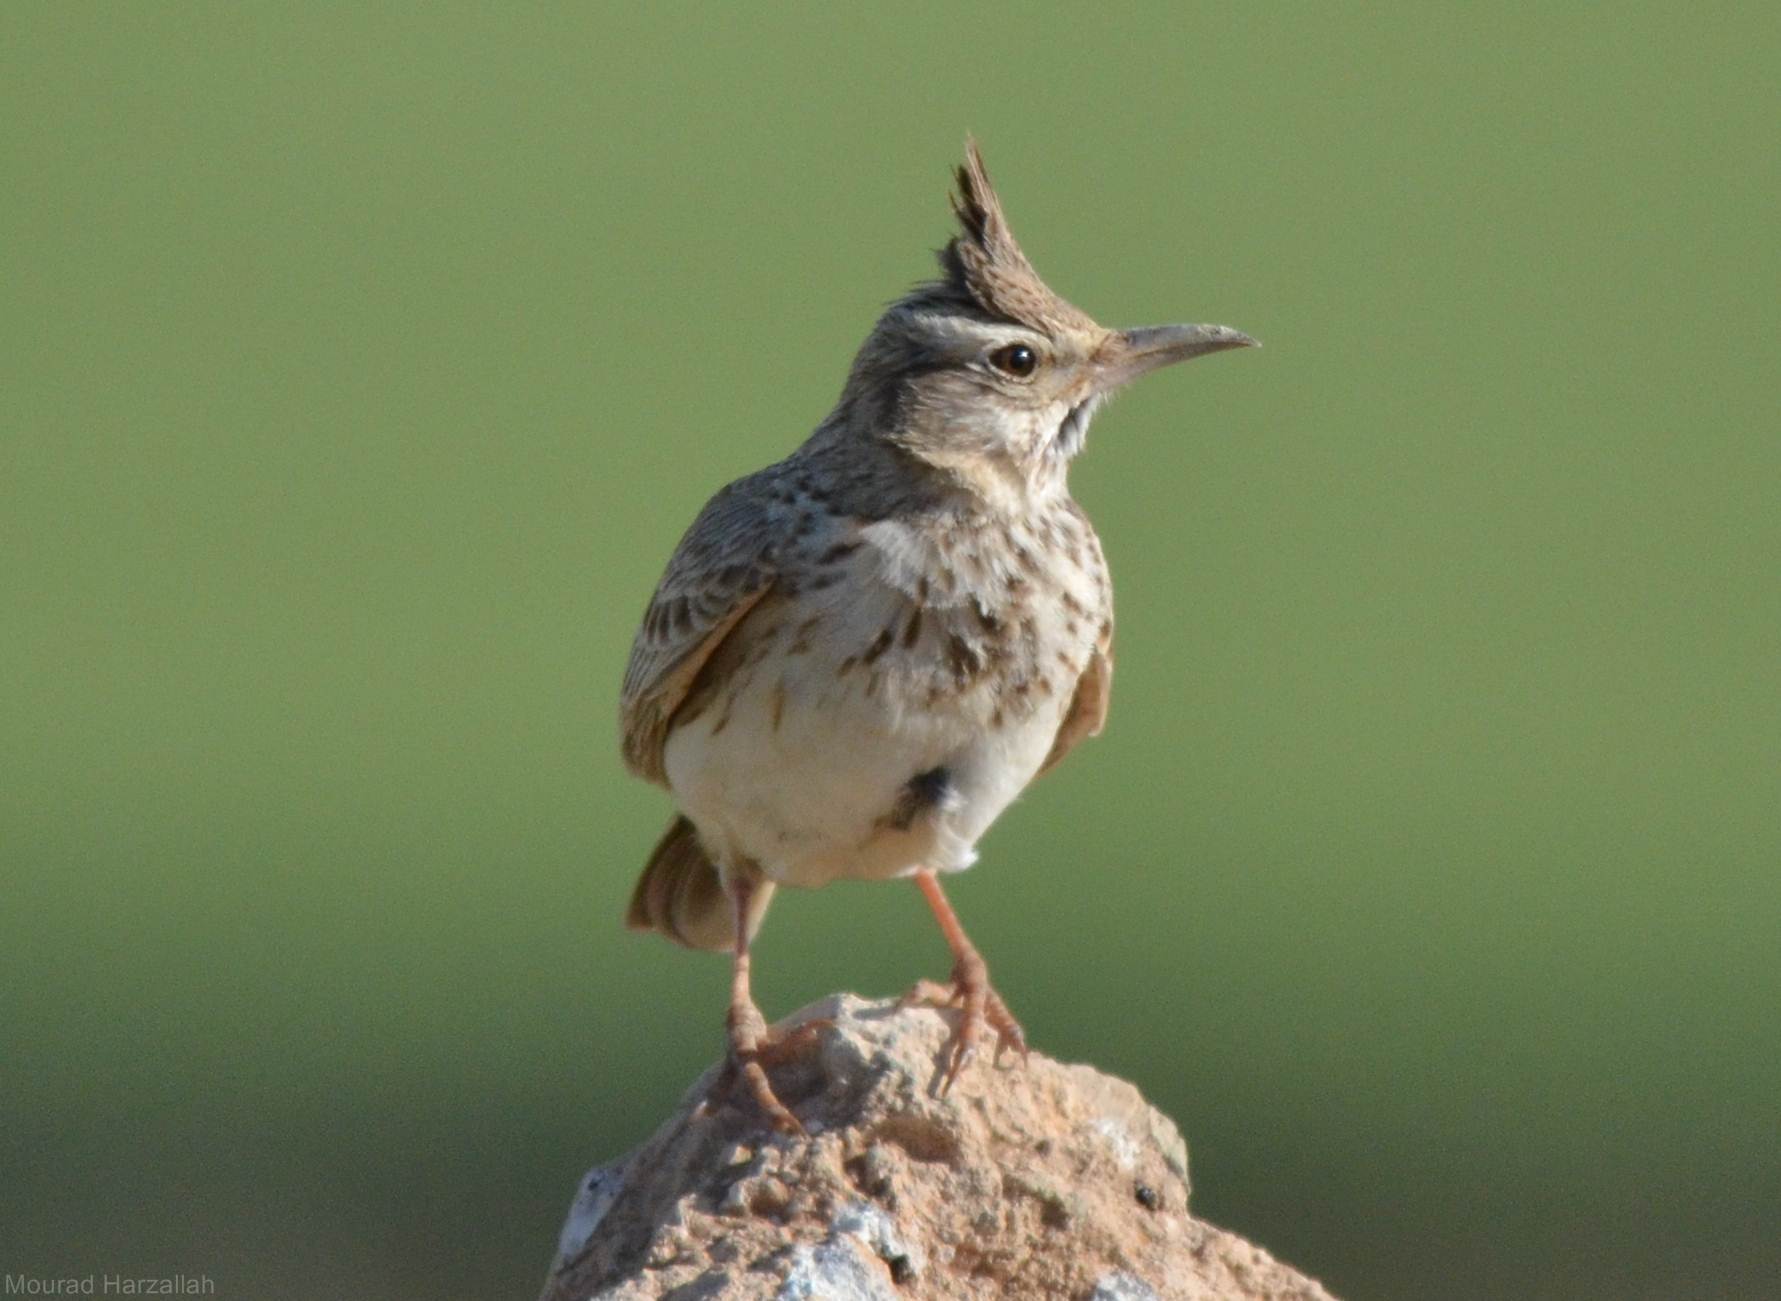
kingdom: Animalia
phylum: Chordata
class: Aves
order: Passeriformes
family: Alaudidae
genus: Galerida
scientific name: Galerida cristata
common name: Crested lark
